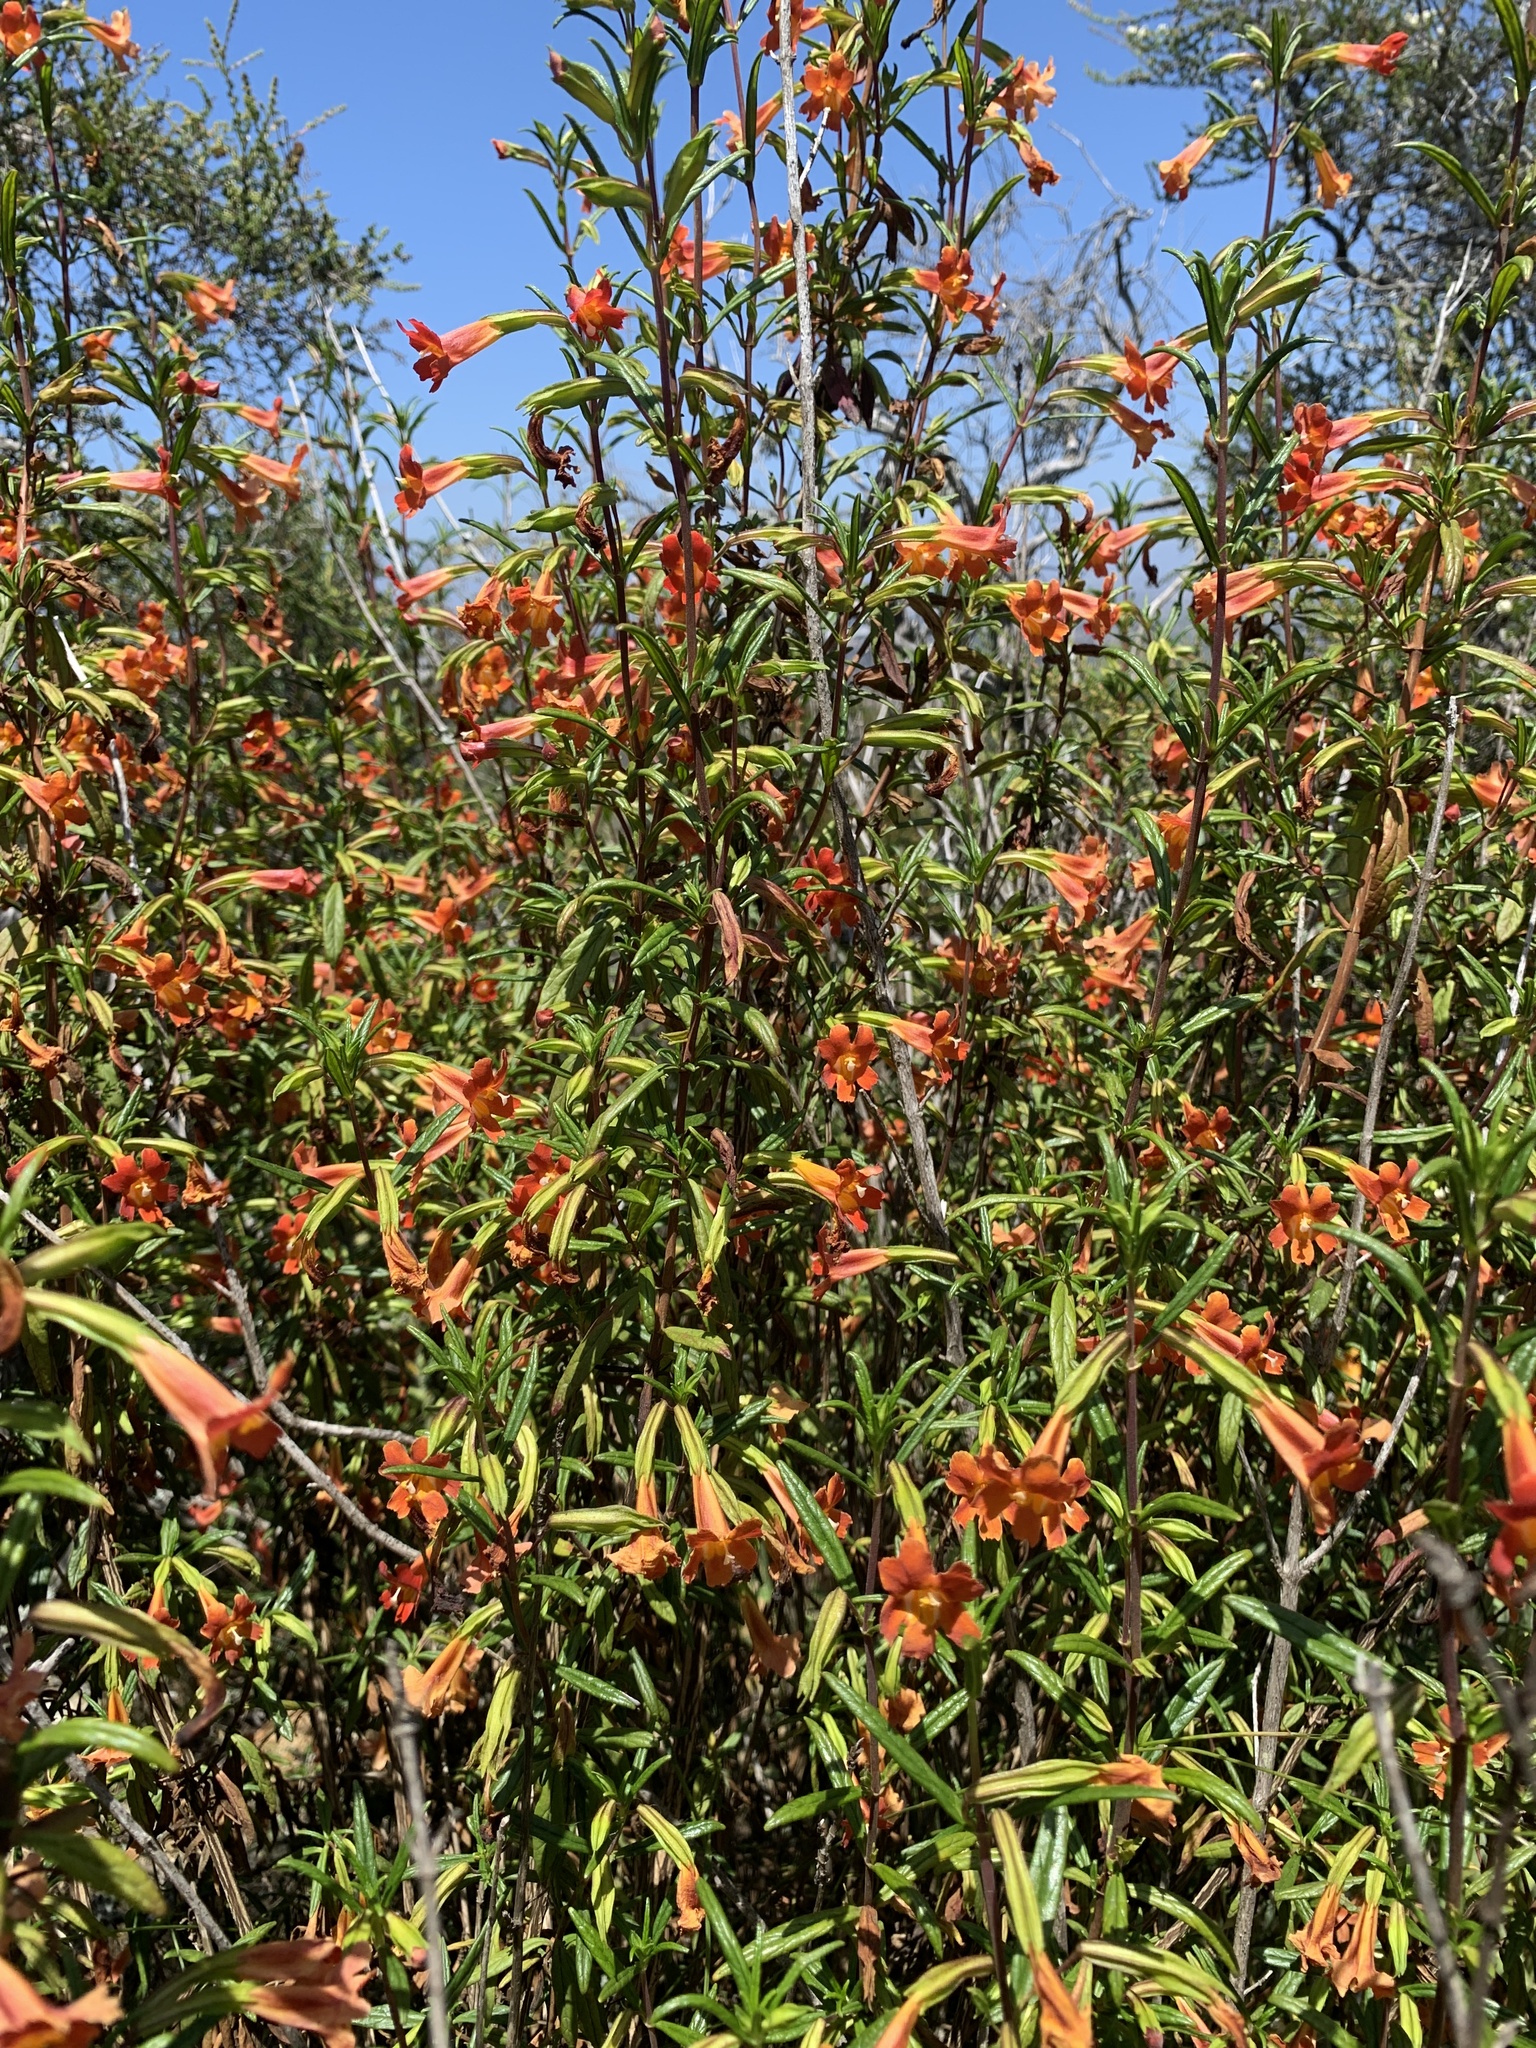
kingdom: Plantae
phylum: Tracheophyta
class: Magnoliopsida
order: Lamiales
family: Phrymaceae
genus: Diplacus
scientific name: Diplacus puniceus
